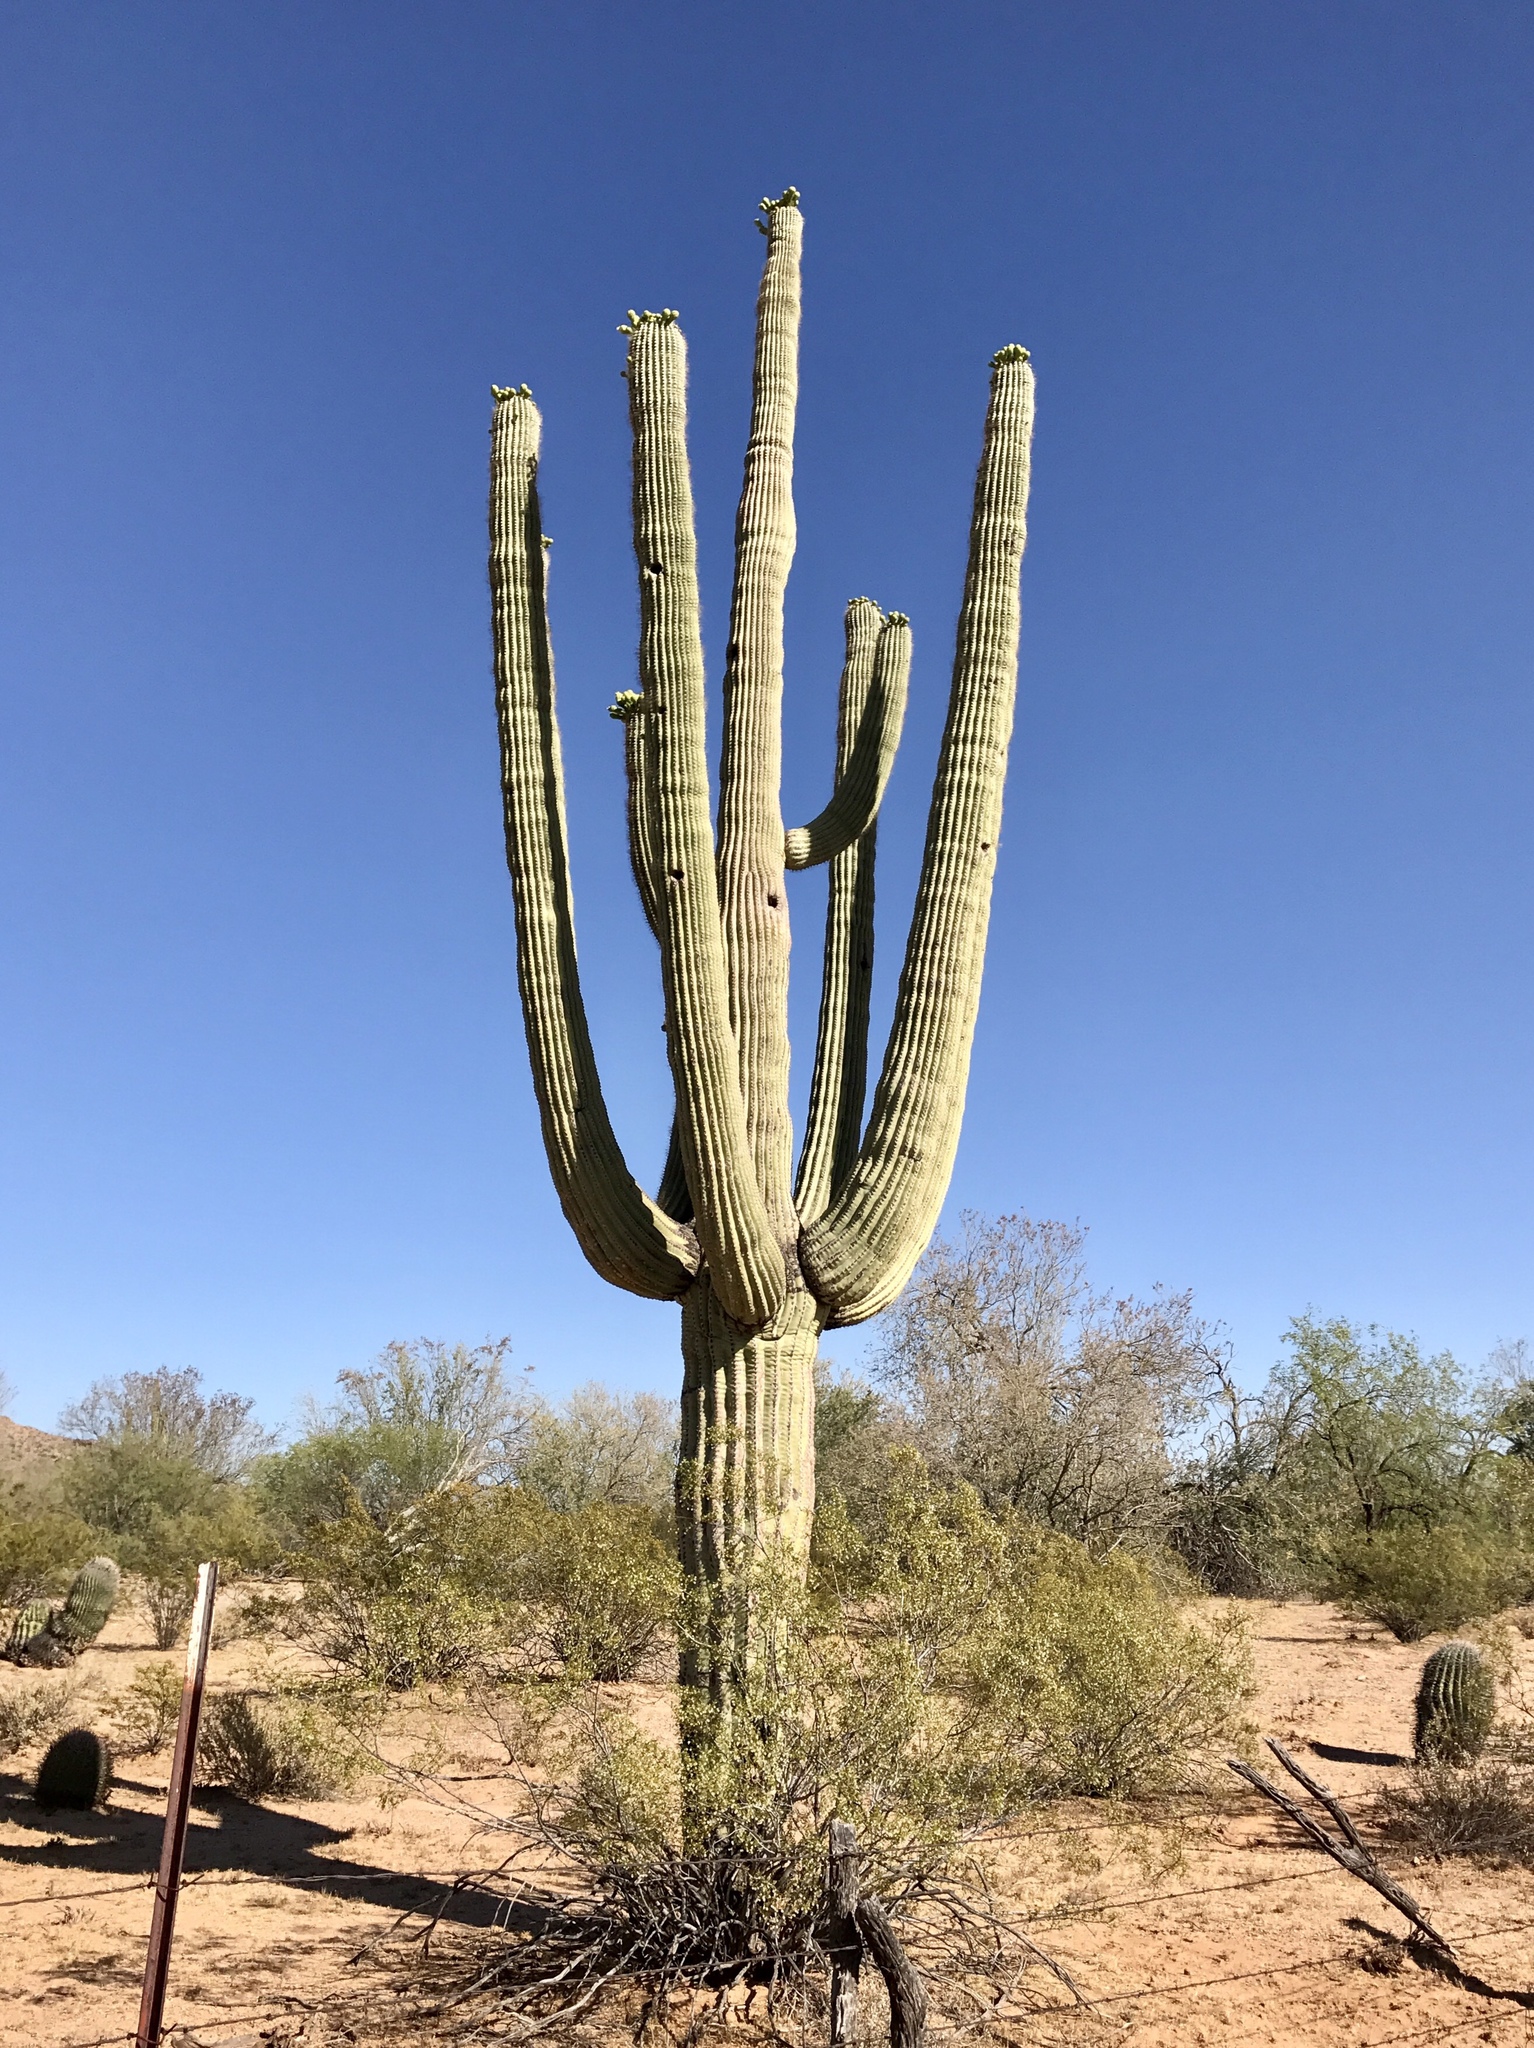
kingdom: Plantae
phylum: Tracheophyta
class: Magnoliopsida
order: Caryophyllales
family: Cactaceae
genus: Carnegiea
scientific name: Carnegiea gigantea
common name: Saguaro
